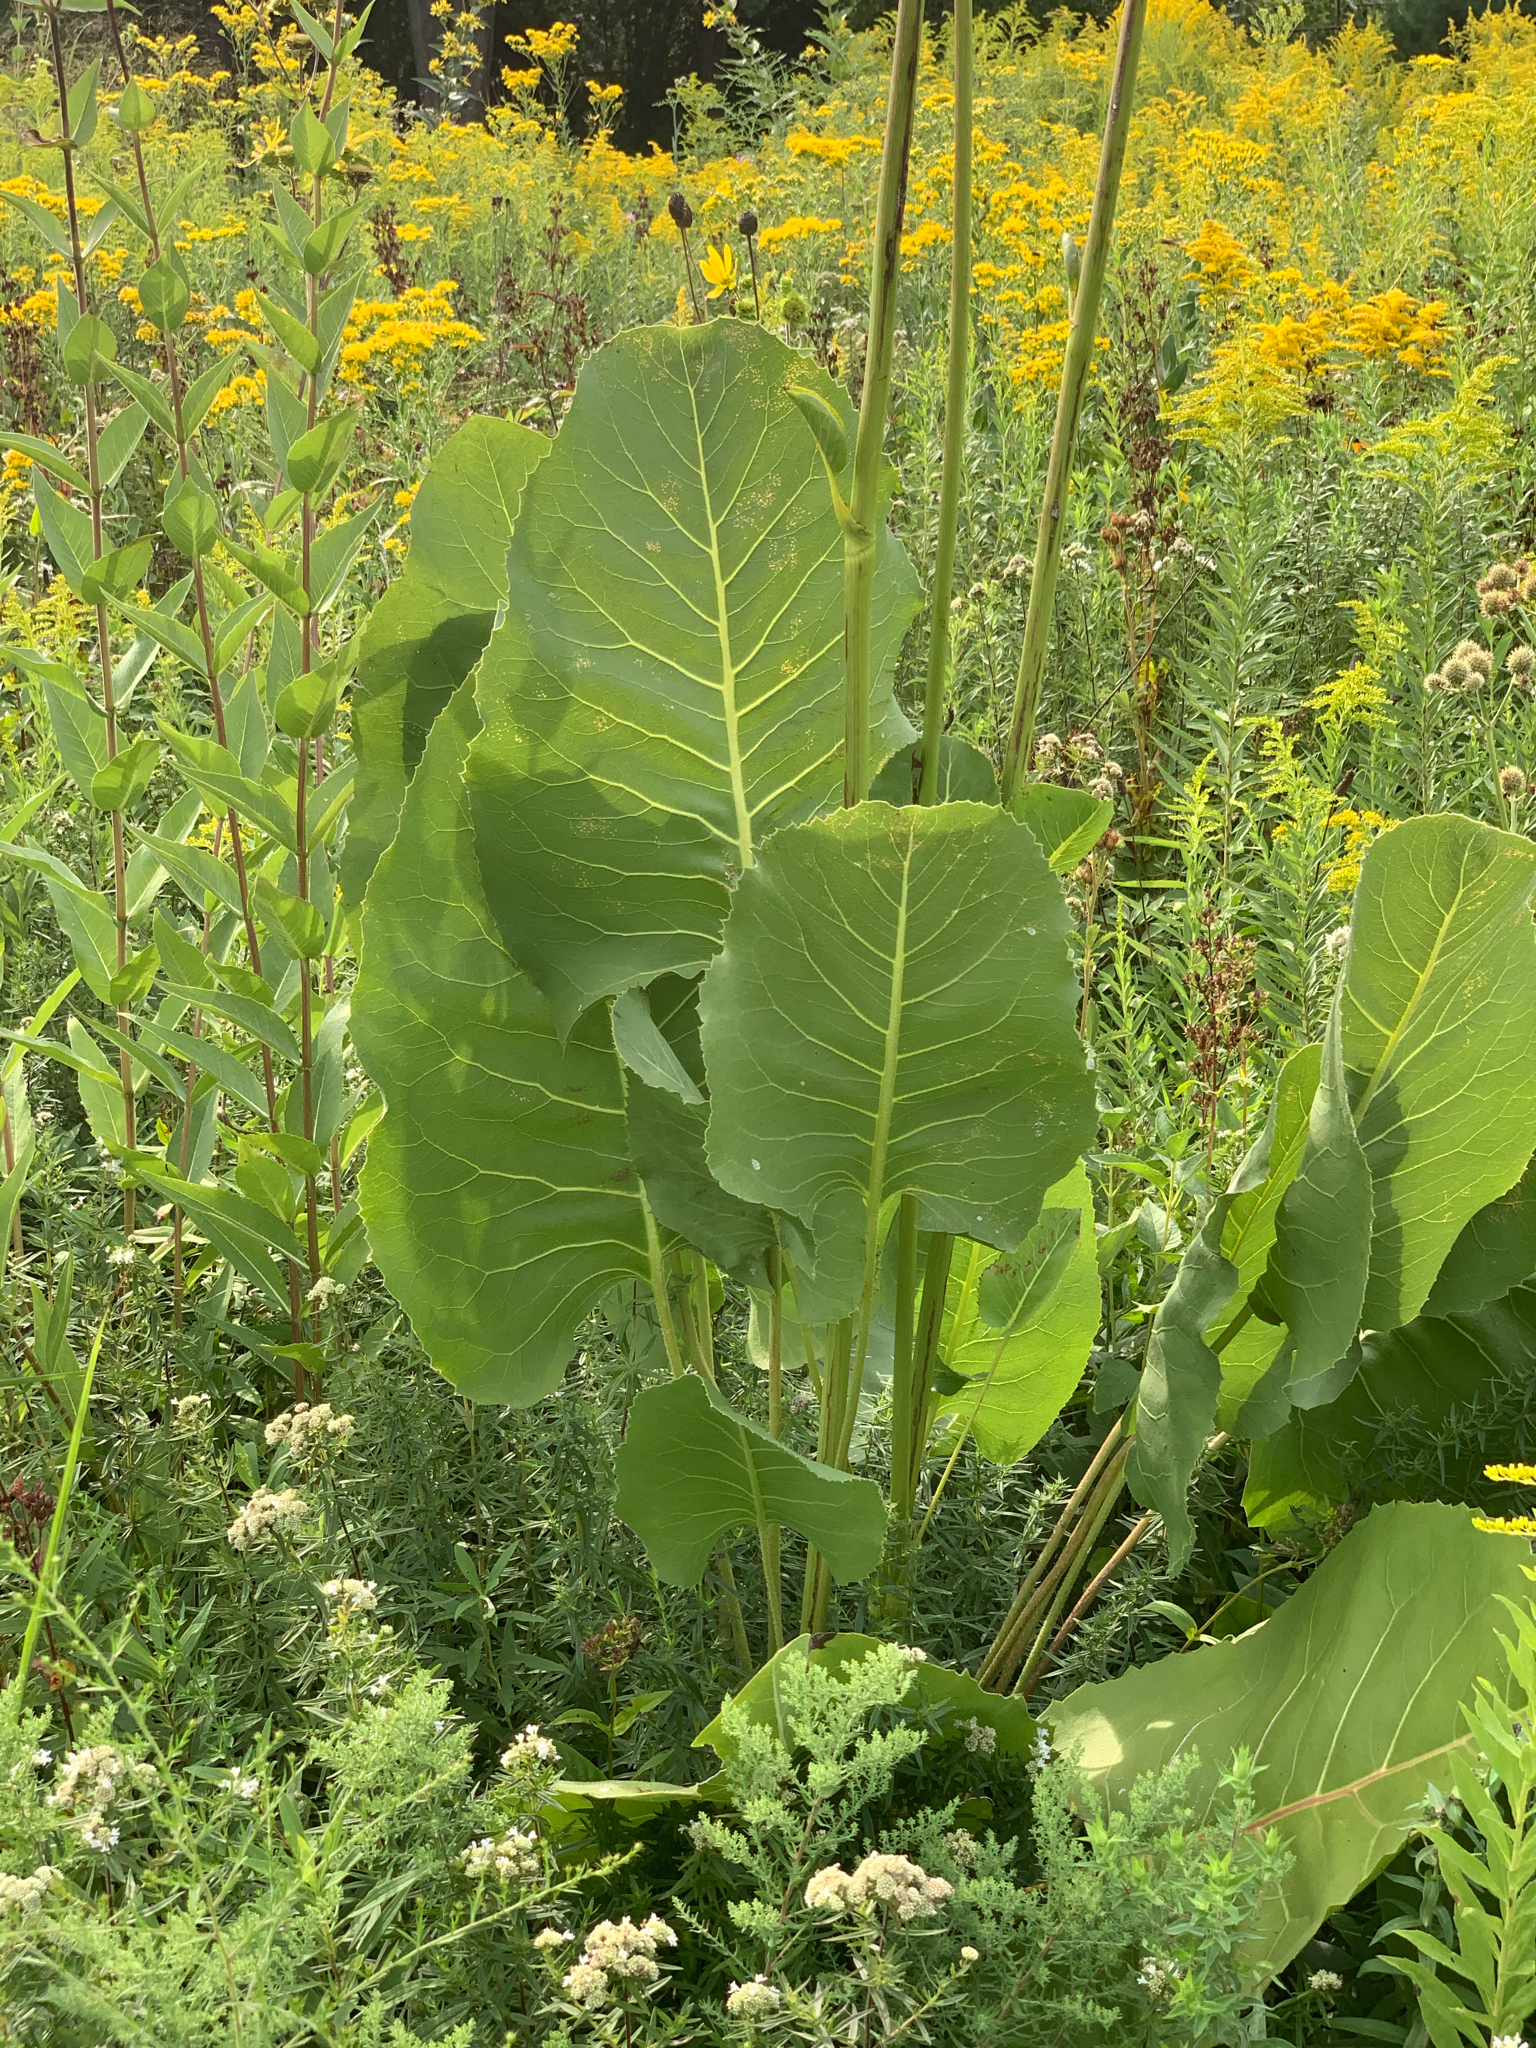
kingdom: Plantae
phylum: Tracheophyta
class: Magnoliopsida
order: Asterales
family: Asteraceae
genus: Silphium
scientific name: Silphium terebinthinaceum
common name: Basal-leaf rosinweed
